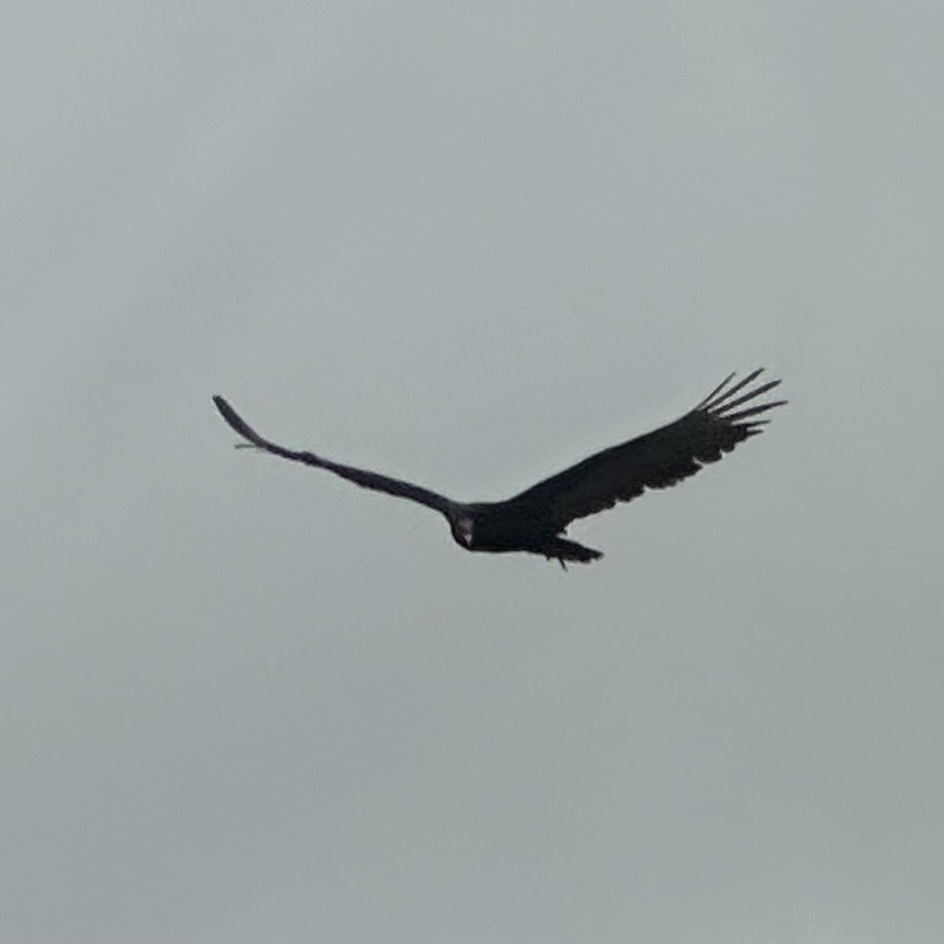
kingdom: Animalia
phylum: Chordata
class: Aves
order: Accipitriformes
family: Cathartidae
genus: Cathartes
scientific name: Cathartes aura
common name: Turkey vulture
